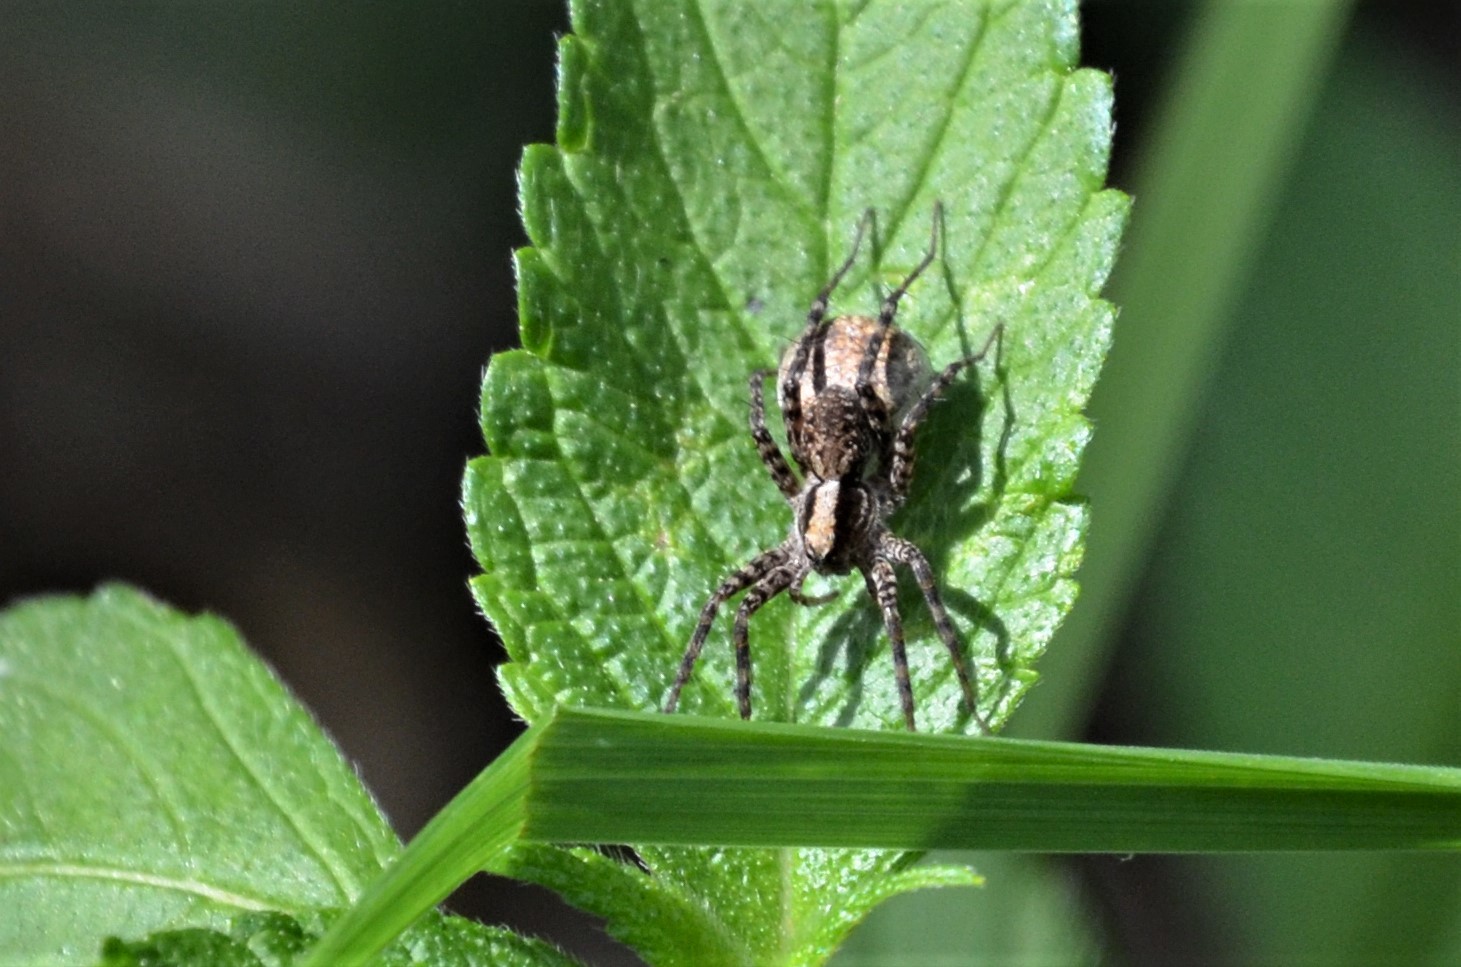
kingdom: Animalia
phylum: Arthropoda
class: Arachnida
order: Araneae
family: Lycosidae
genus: Pardosa
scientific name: Pardosa
